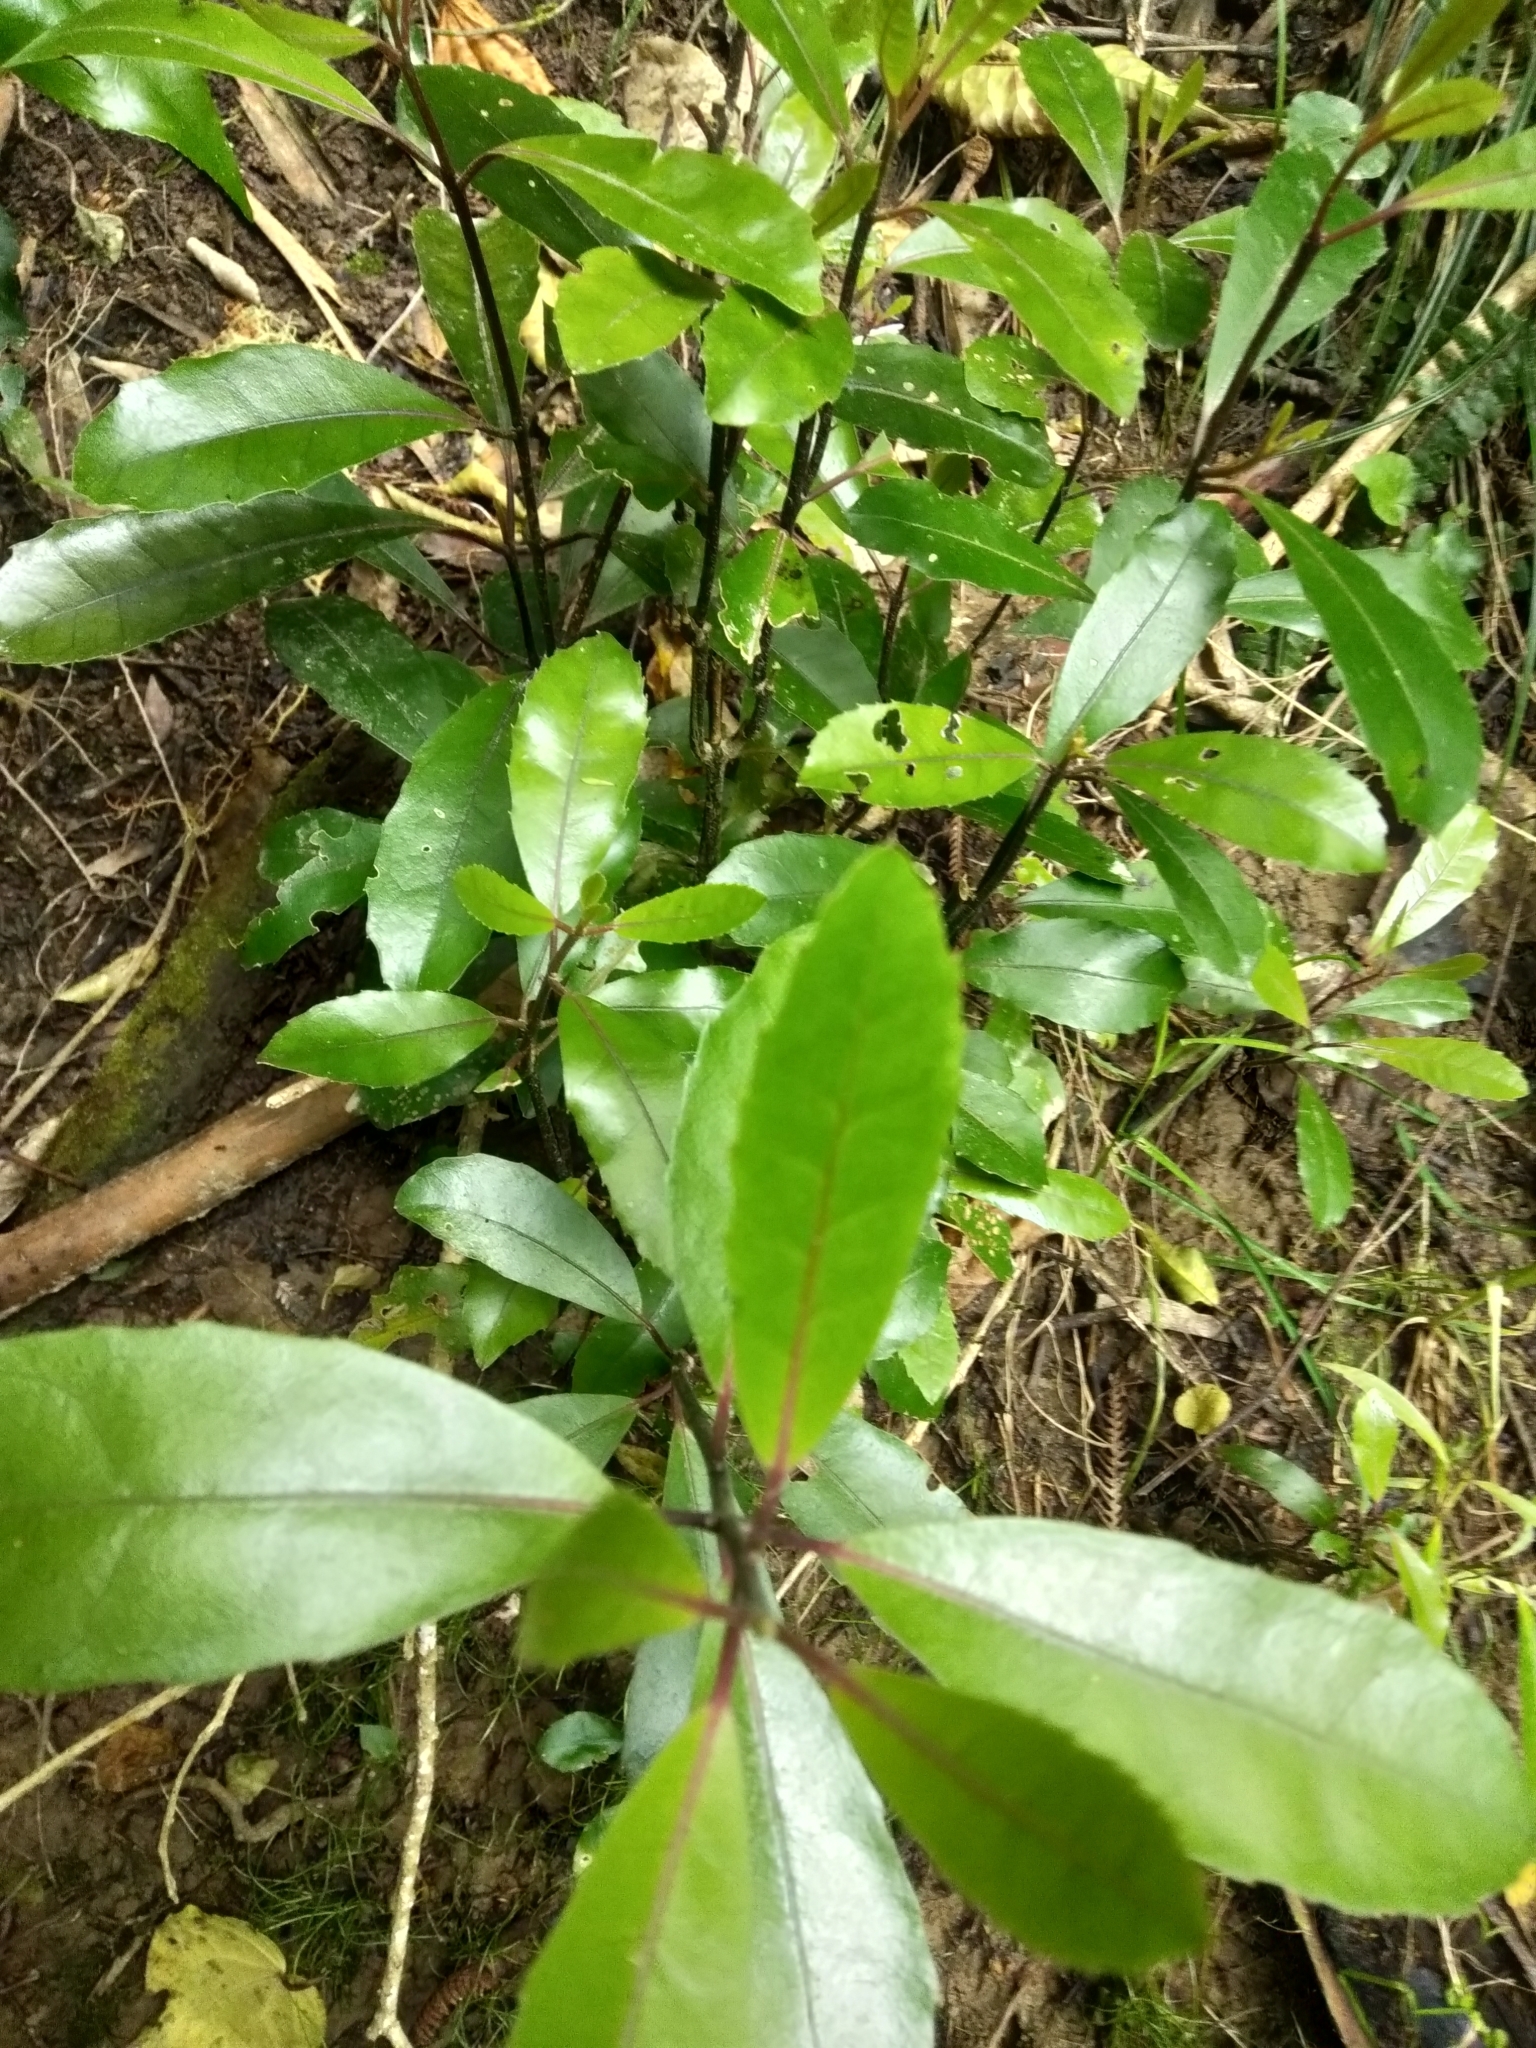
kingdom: Plantae
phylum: Tracheophyta
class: Magnoliopsida
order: Laurales
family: Monimiaceae
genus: Hedycarya
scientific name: Hedycarya arborea
